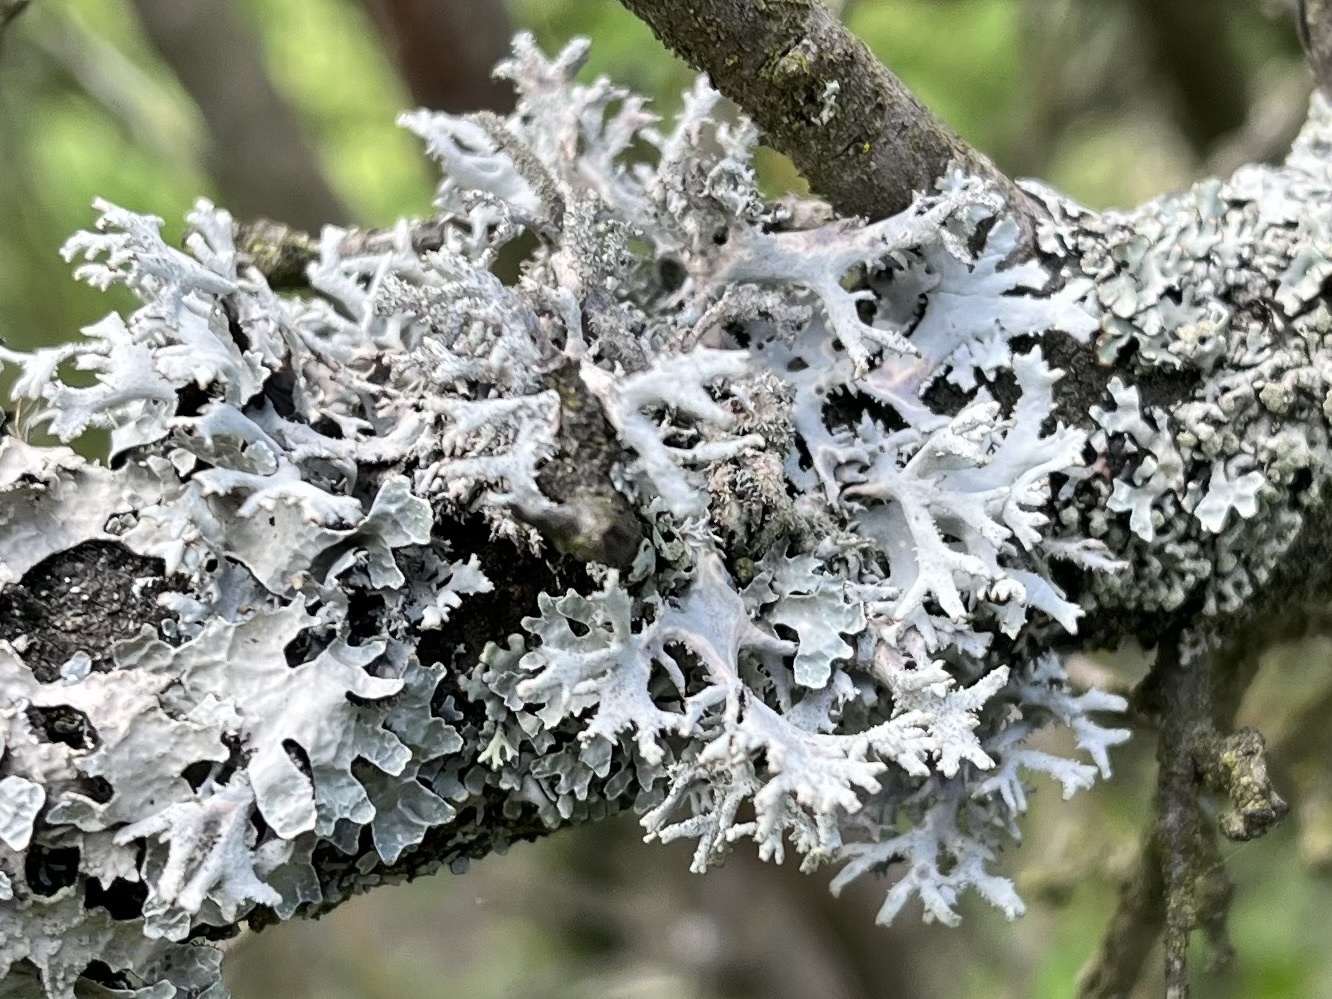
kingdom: Fungi
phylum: Ascomycota
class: Lecanoromycetes
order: Lecanorales
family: Parmeliaceae
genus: Pseudevernia
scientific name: Pseudevernia furfuracea
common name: Tree moss
